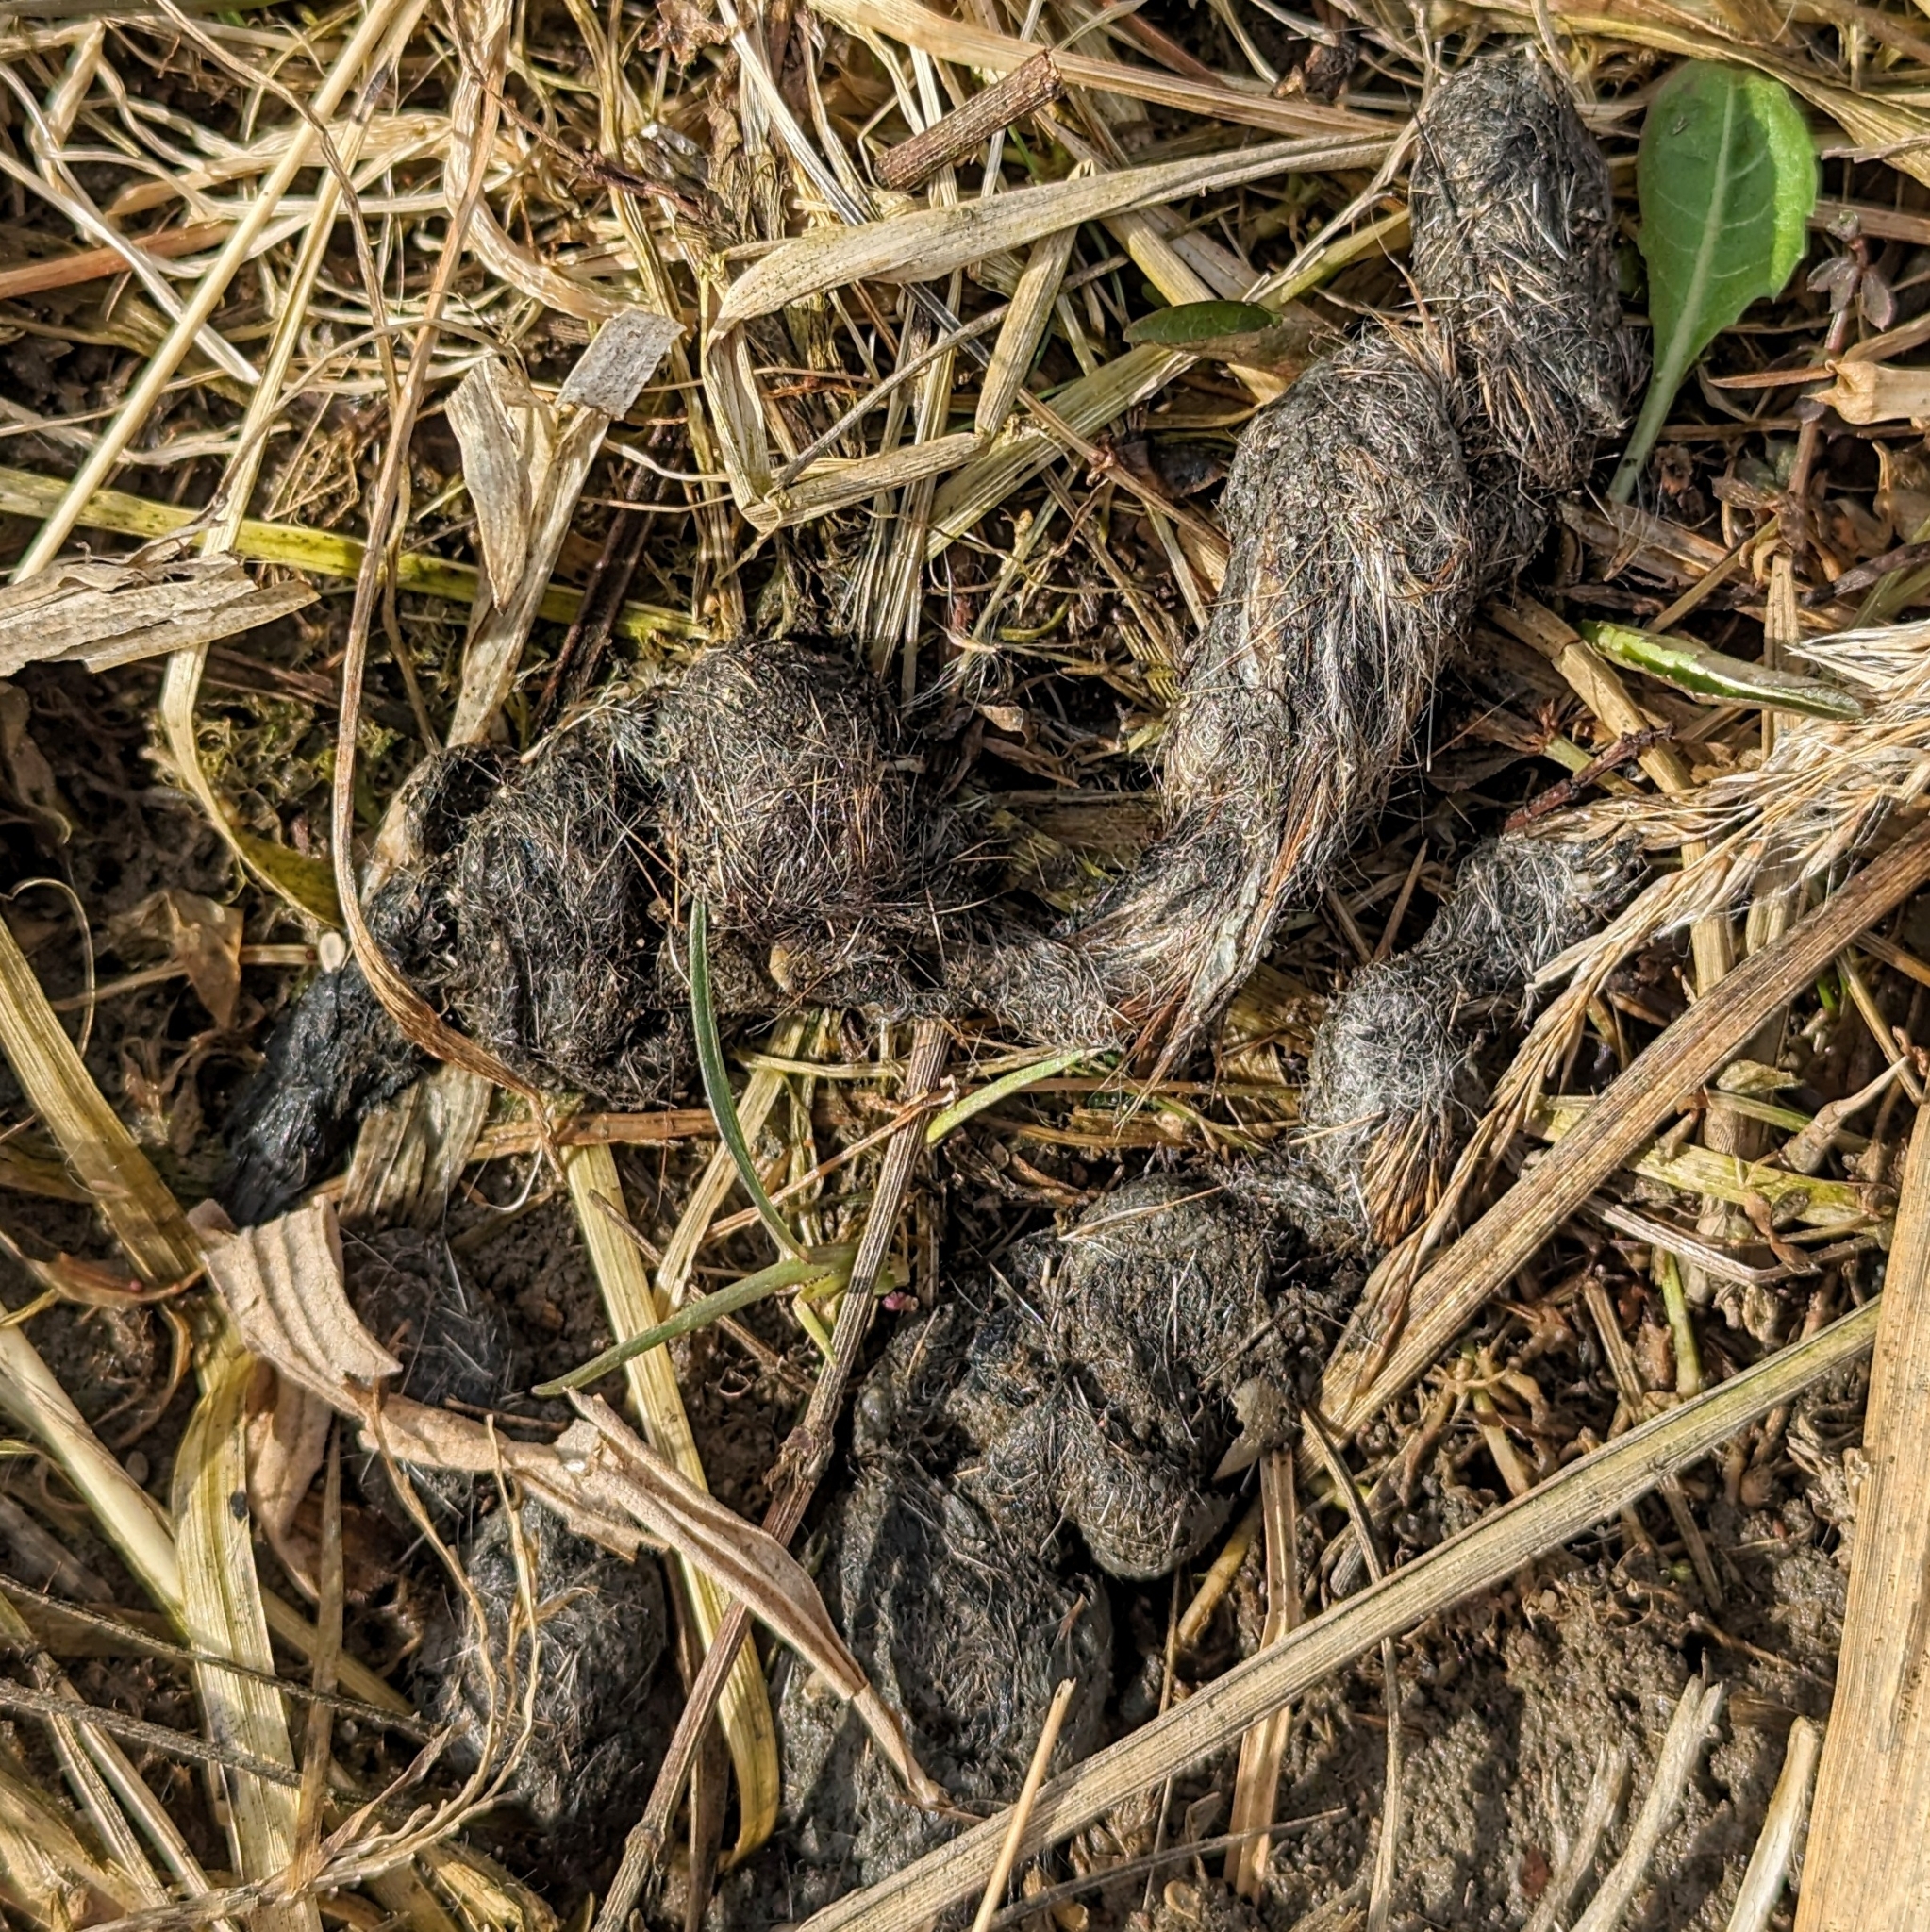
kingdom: Animalia
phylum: Chordata
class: Mammalia
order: Carnivora
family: Felidae
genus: Felis
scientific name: Felis catus
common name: Domestic cat
